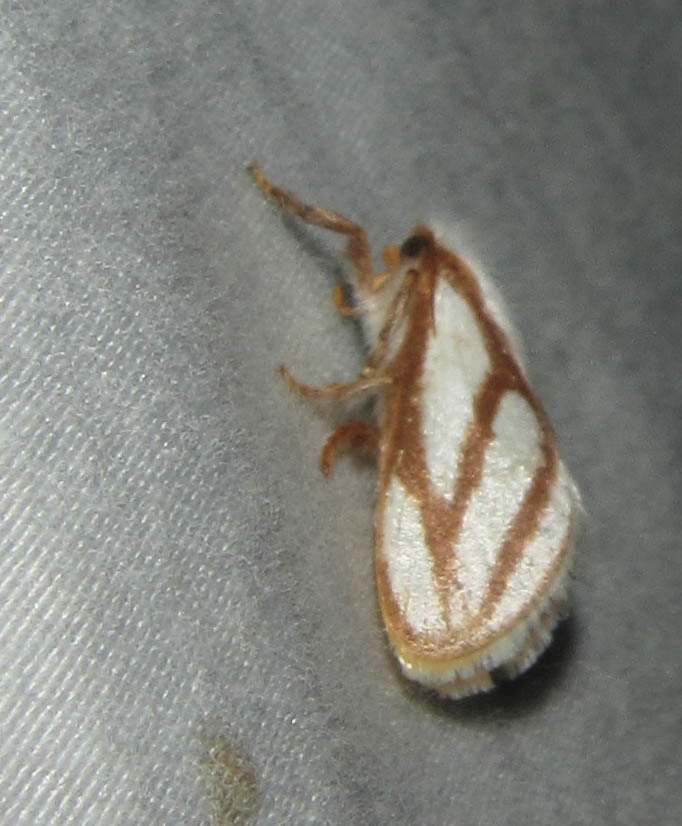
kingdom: Animalia
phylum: Arthropoda
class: Insecta
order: Lepidoptera
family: Limacodidae
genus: Parapluda
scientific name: Parapluda invitabilis
